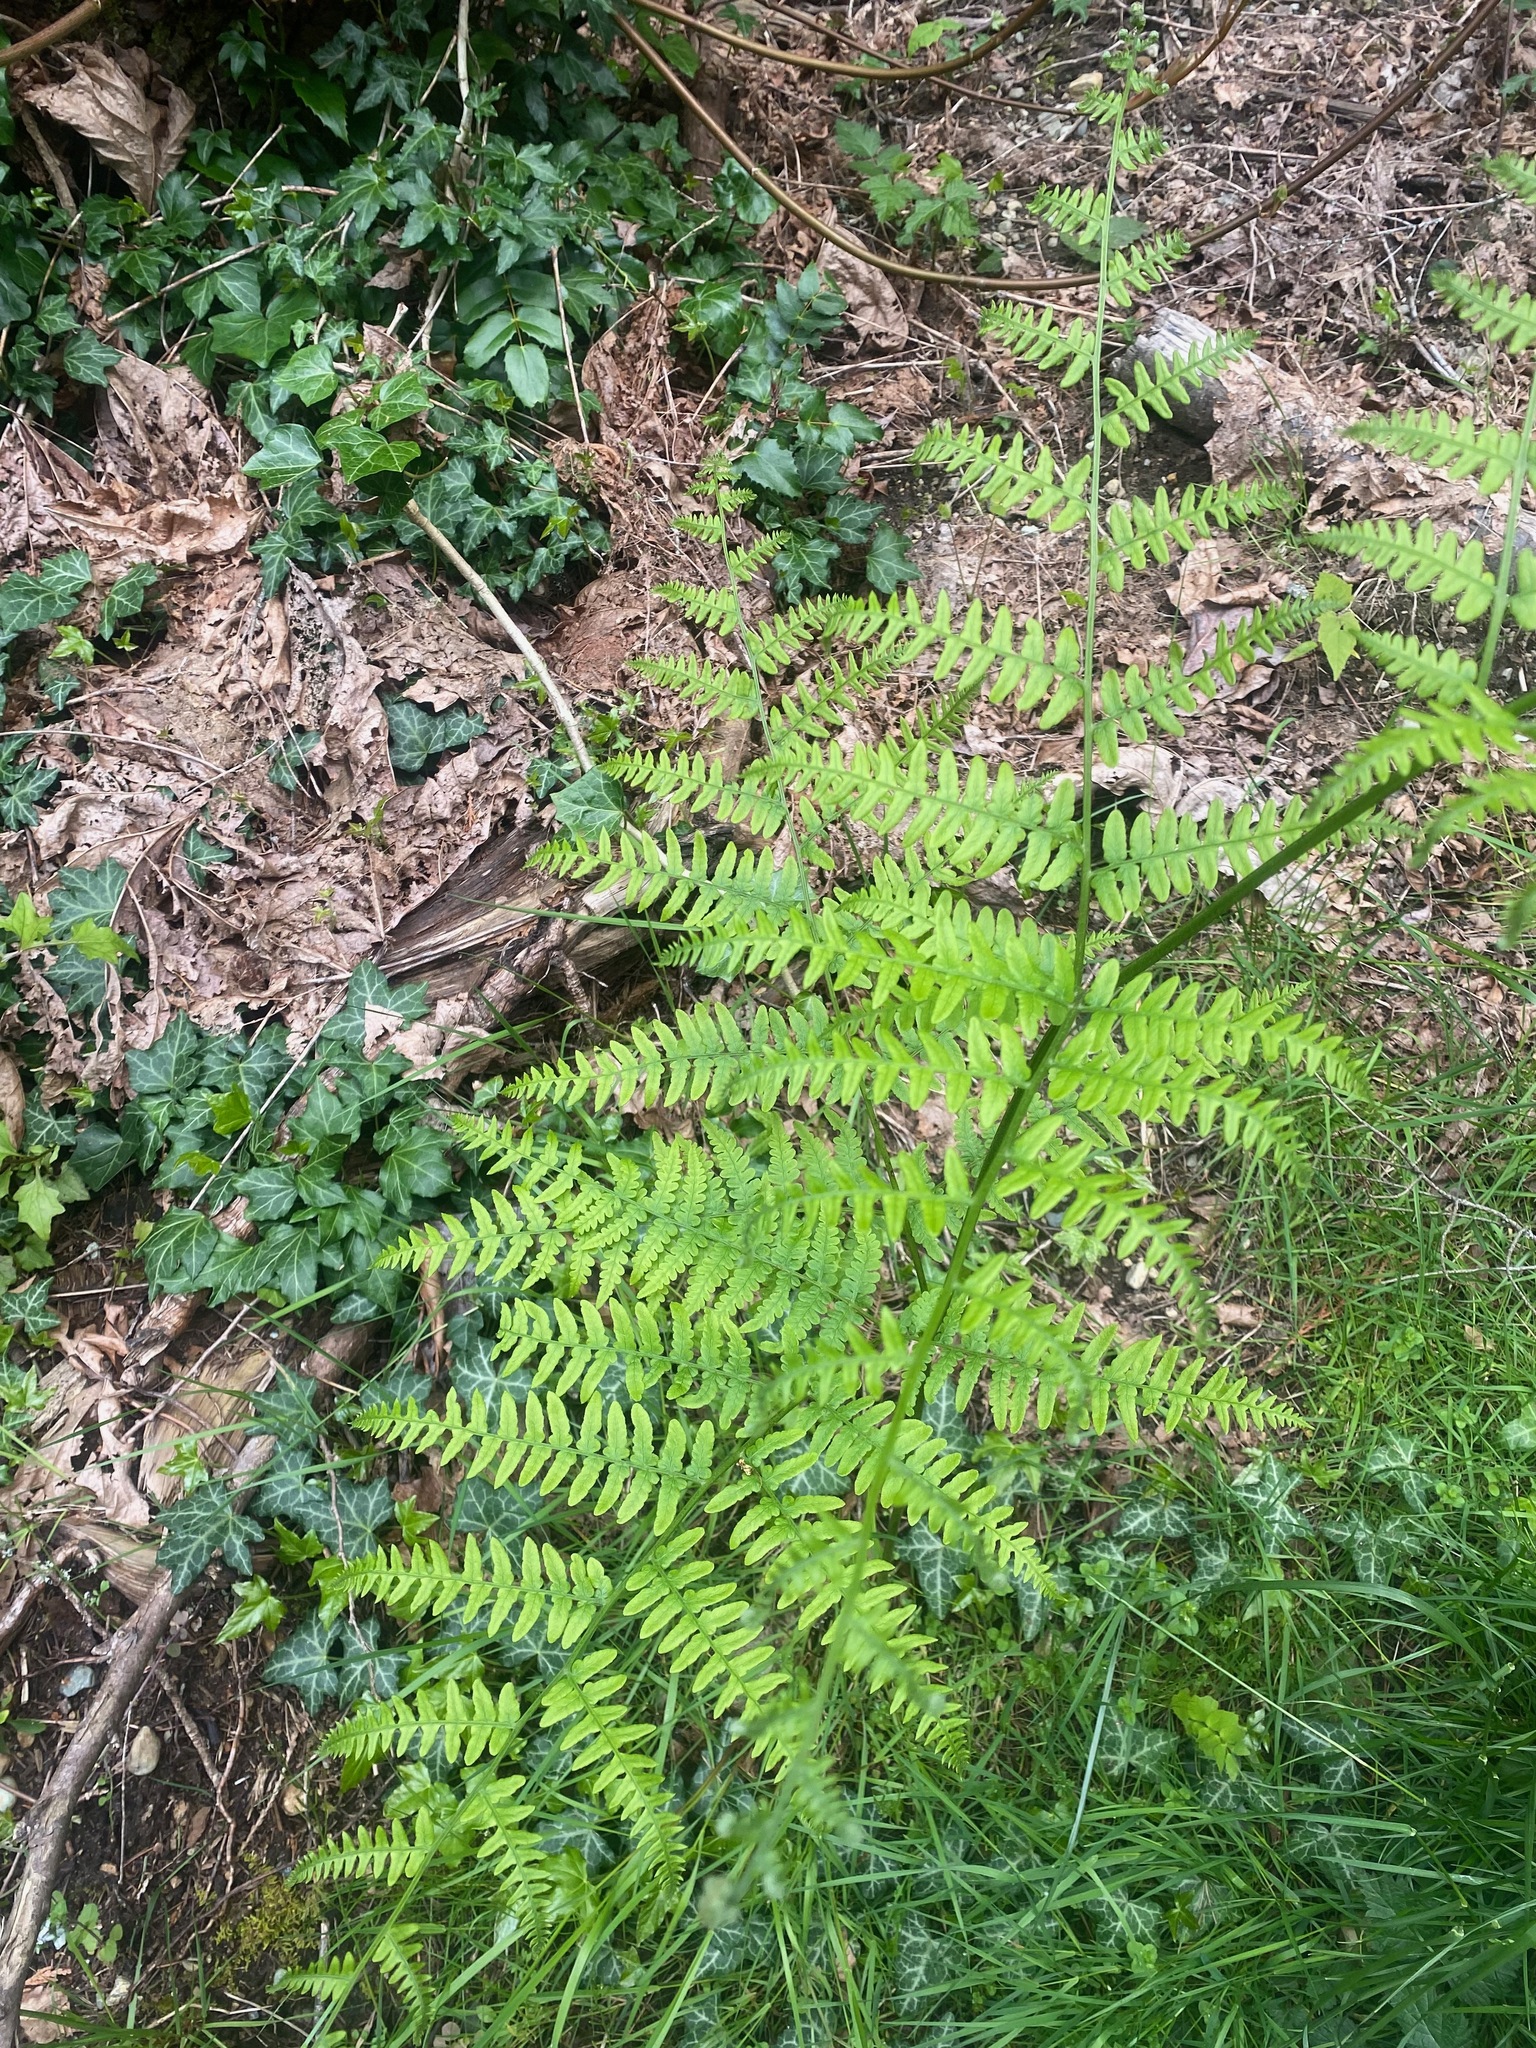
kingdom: Plantae
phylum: Tracheophyta
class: Polypodiopsida
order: Polypodiales
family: Dennstaedtiaceae
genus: Pteridium
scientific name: Pteridium aquilinum
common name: Bracken
